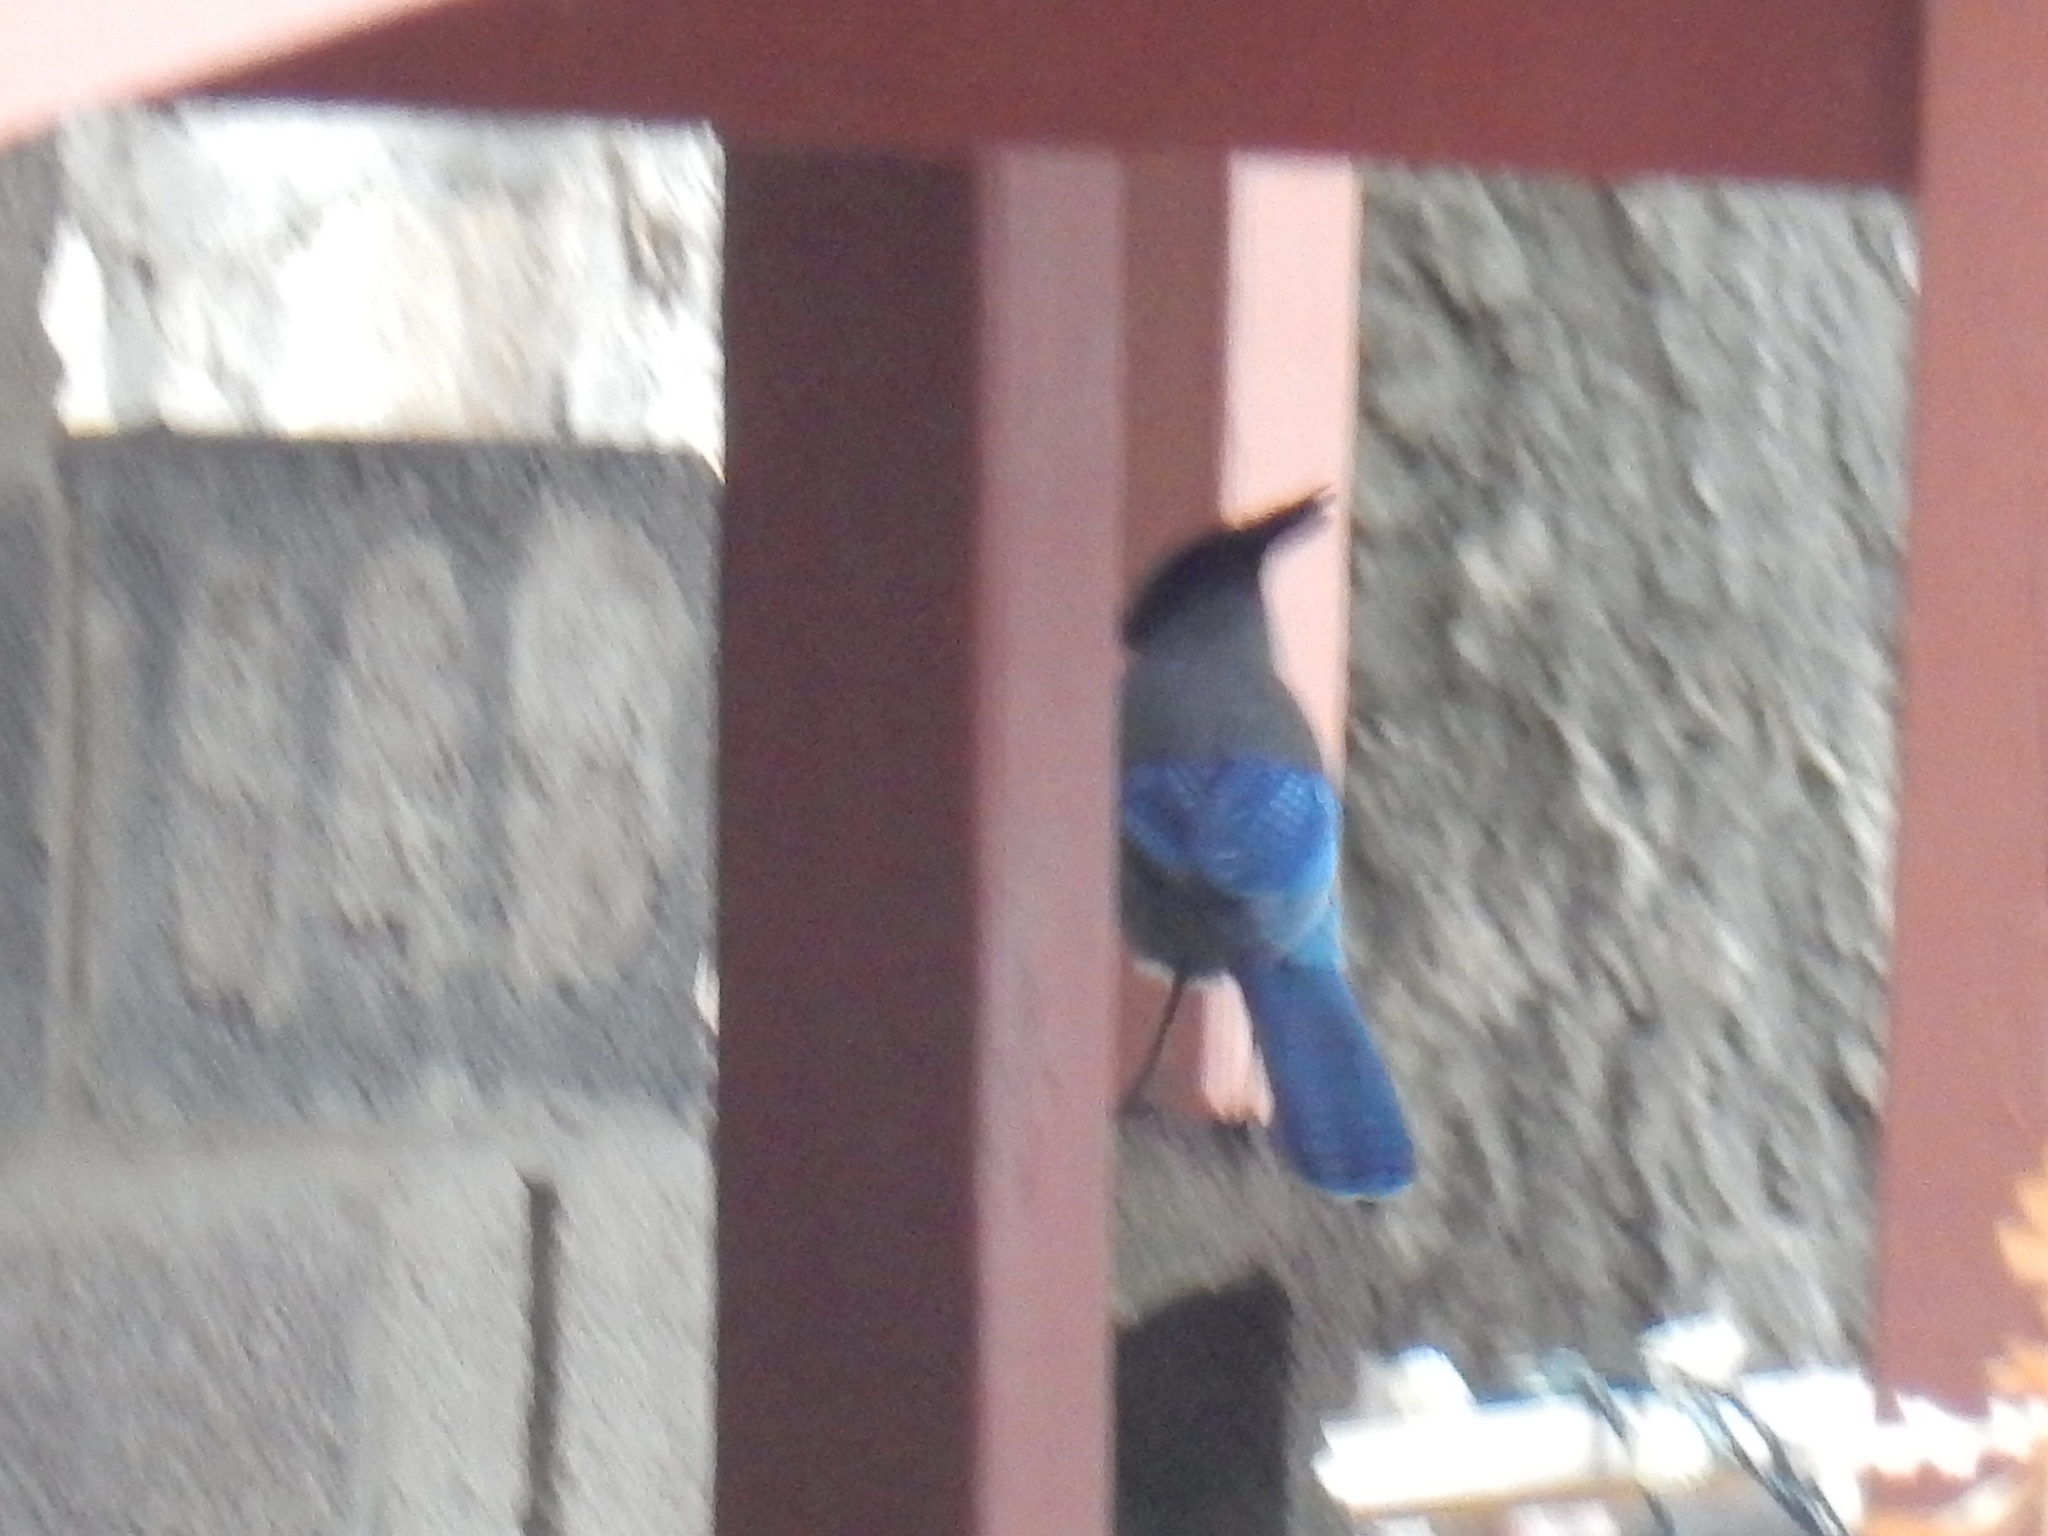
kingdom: Animalia
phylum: Chordata
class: Aves
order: Passeriformes
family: Corvidae
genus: Cyanocitta
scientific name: Cyanocitta stelleri
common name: Steller's jay
